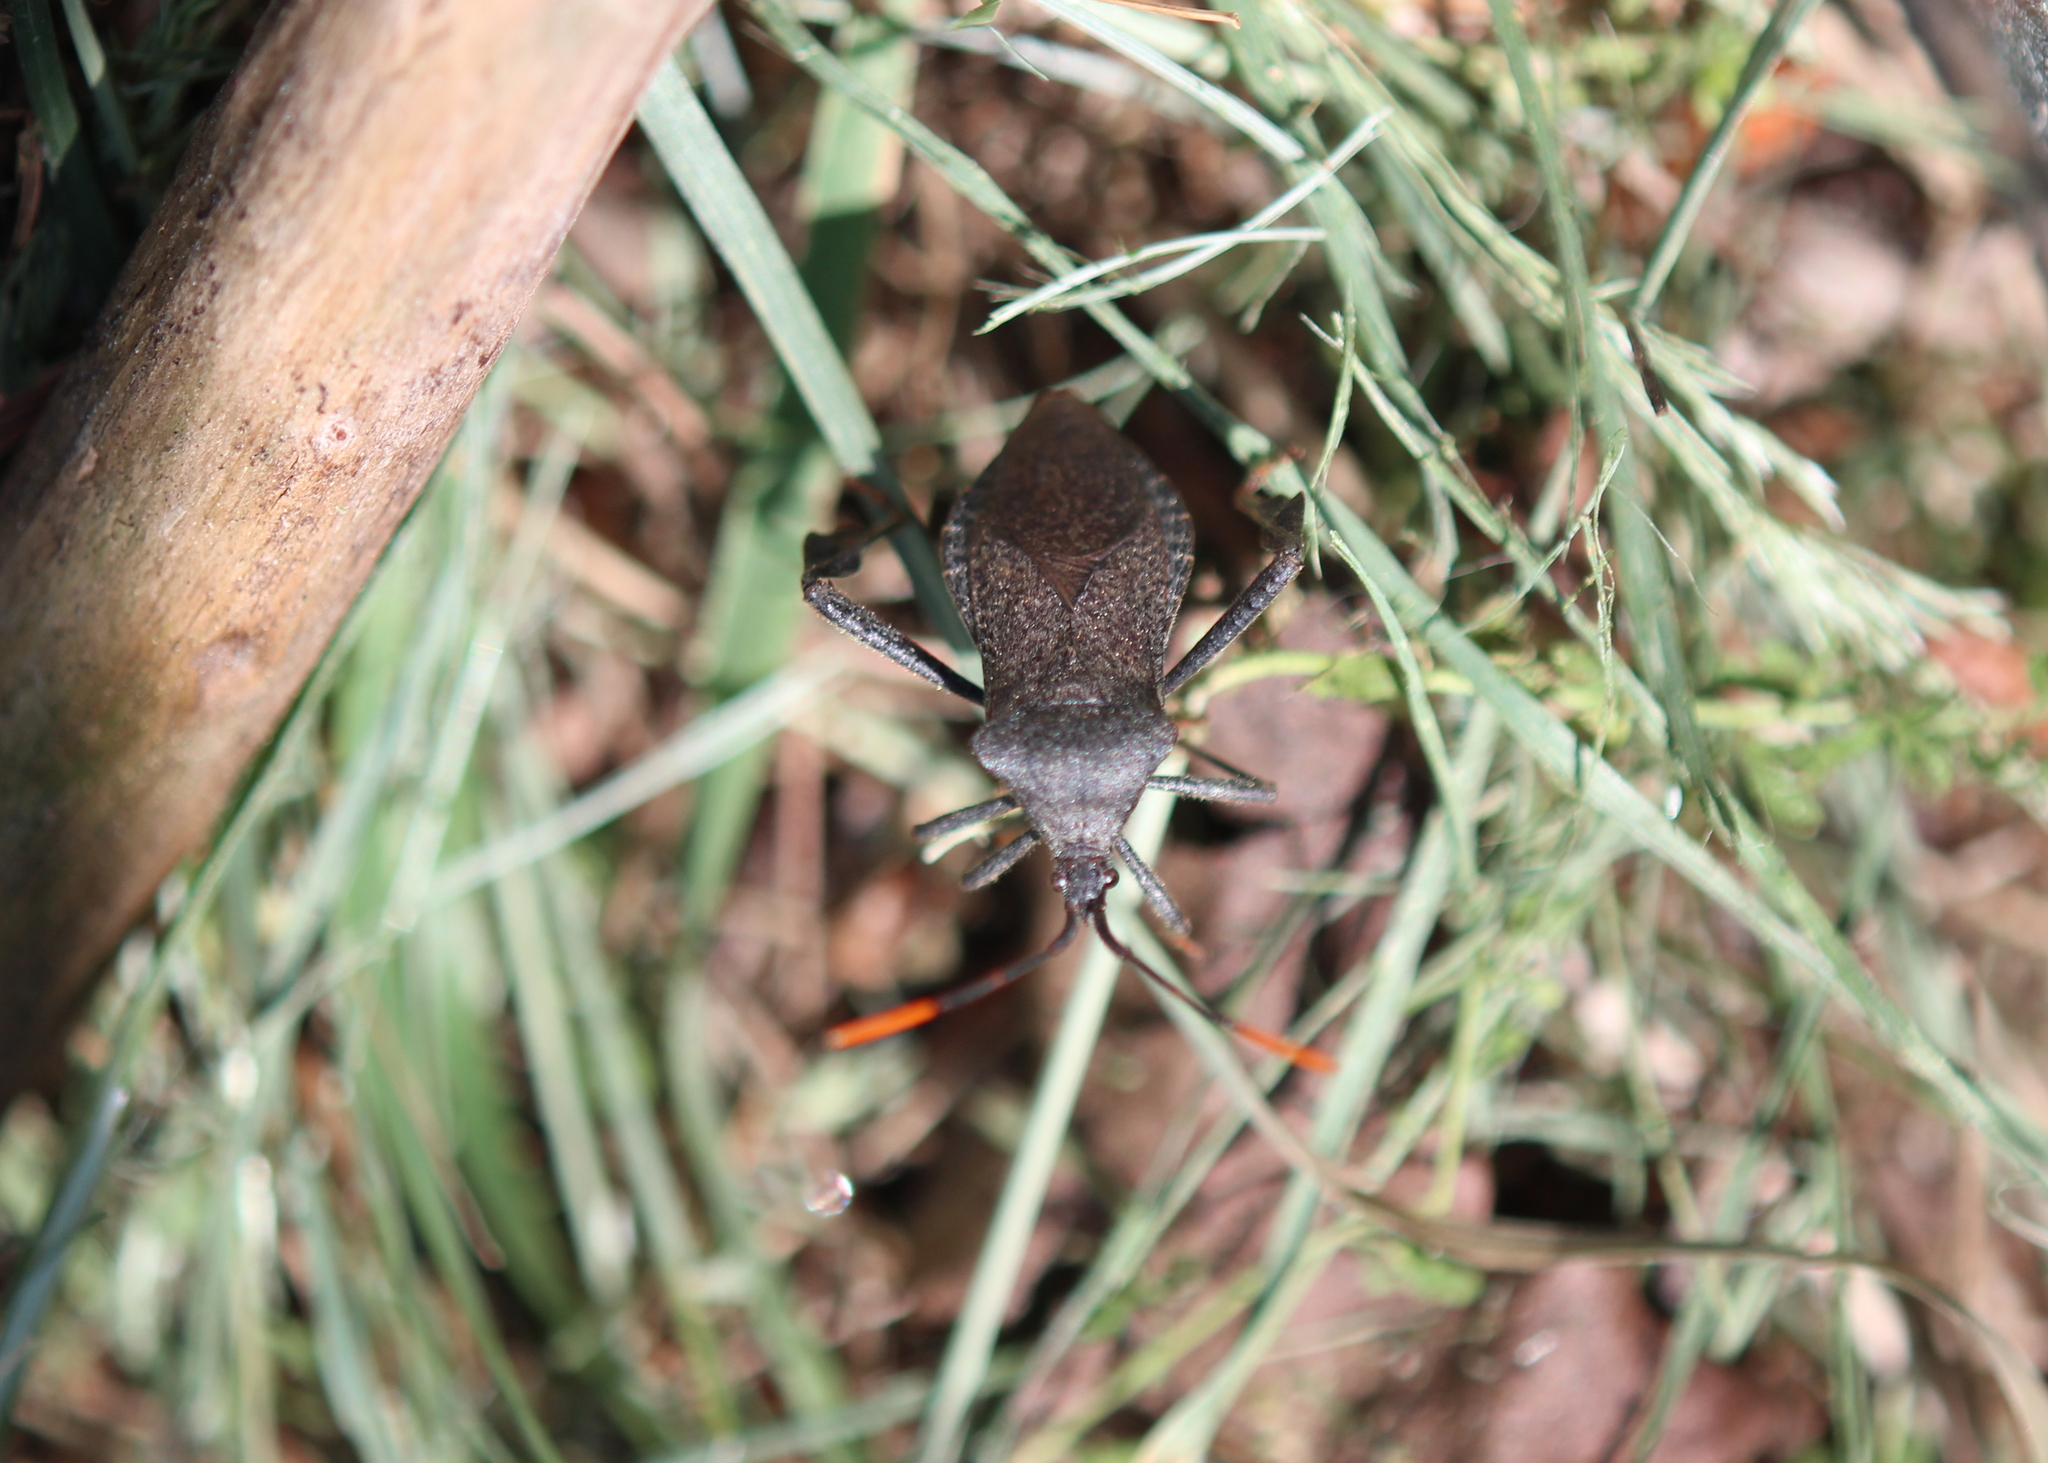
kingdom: Animalia
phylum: Arthropoda
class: Insecta
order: Hemiptera
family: Coreidae
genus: Acanthocephala
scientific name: Acanthocephala terminalis
